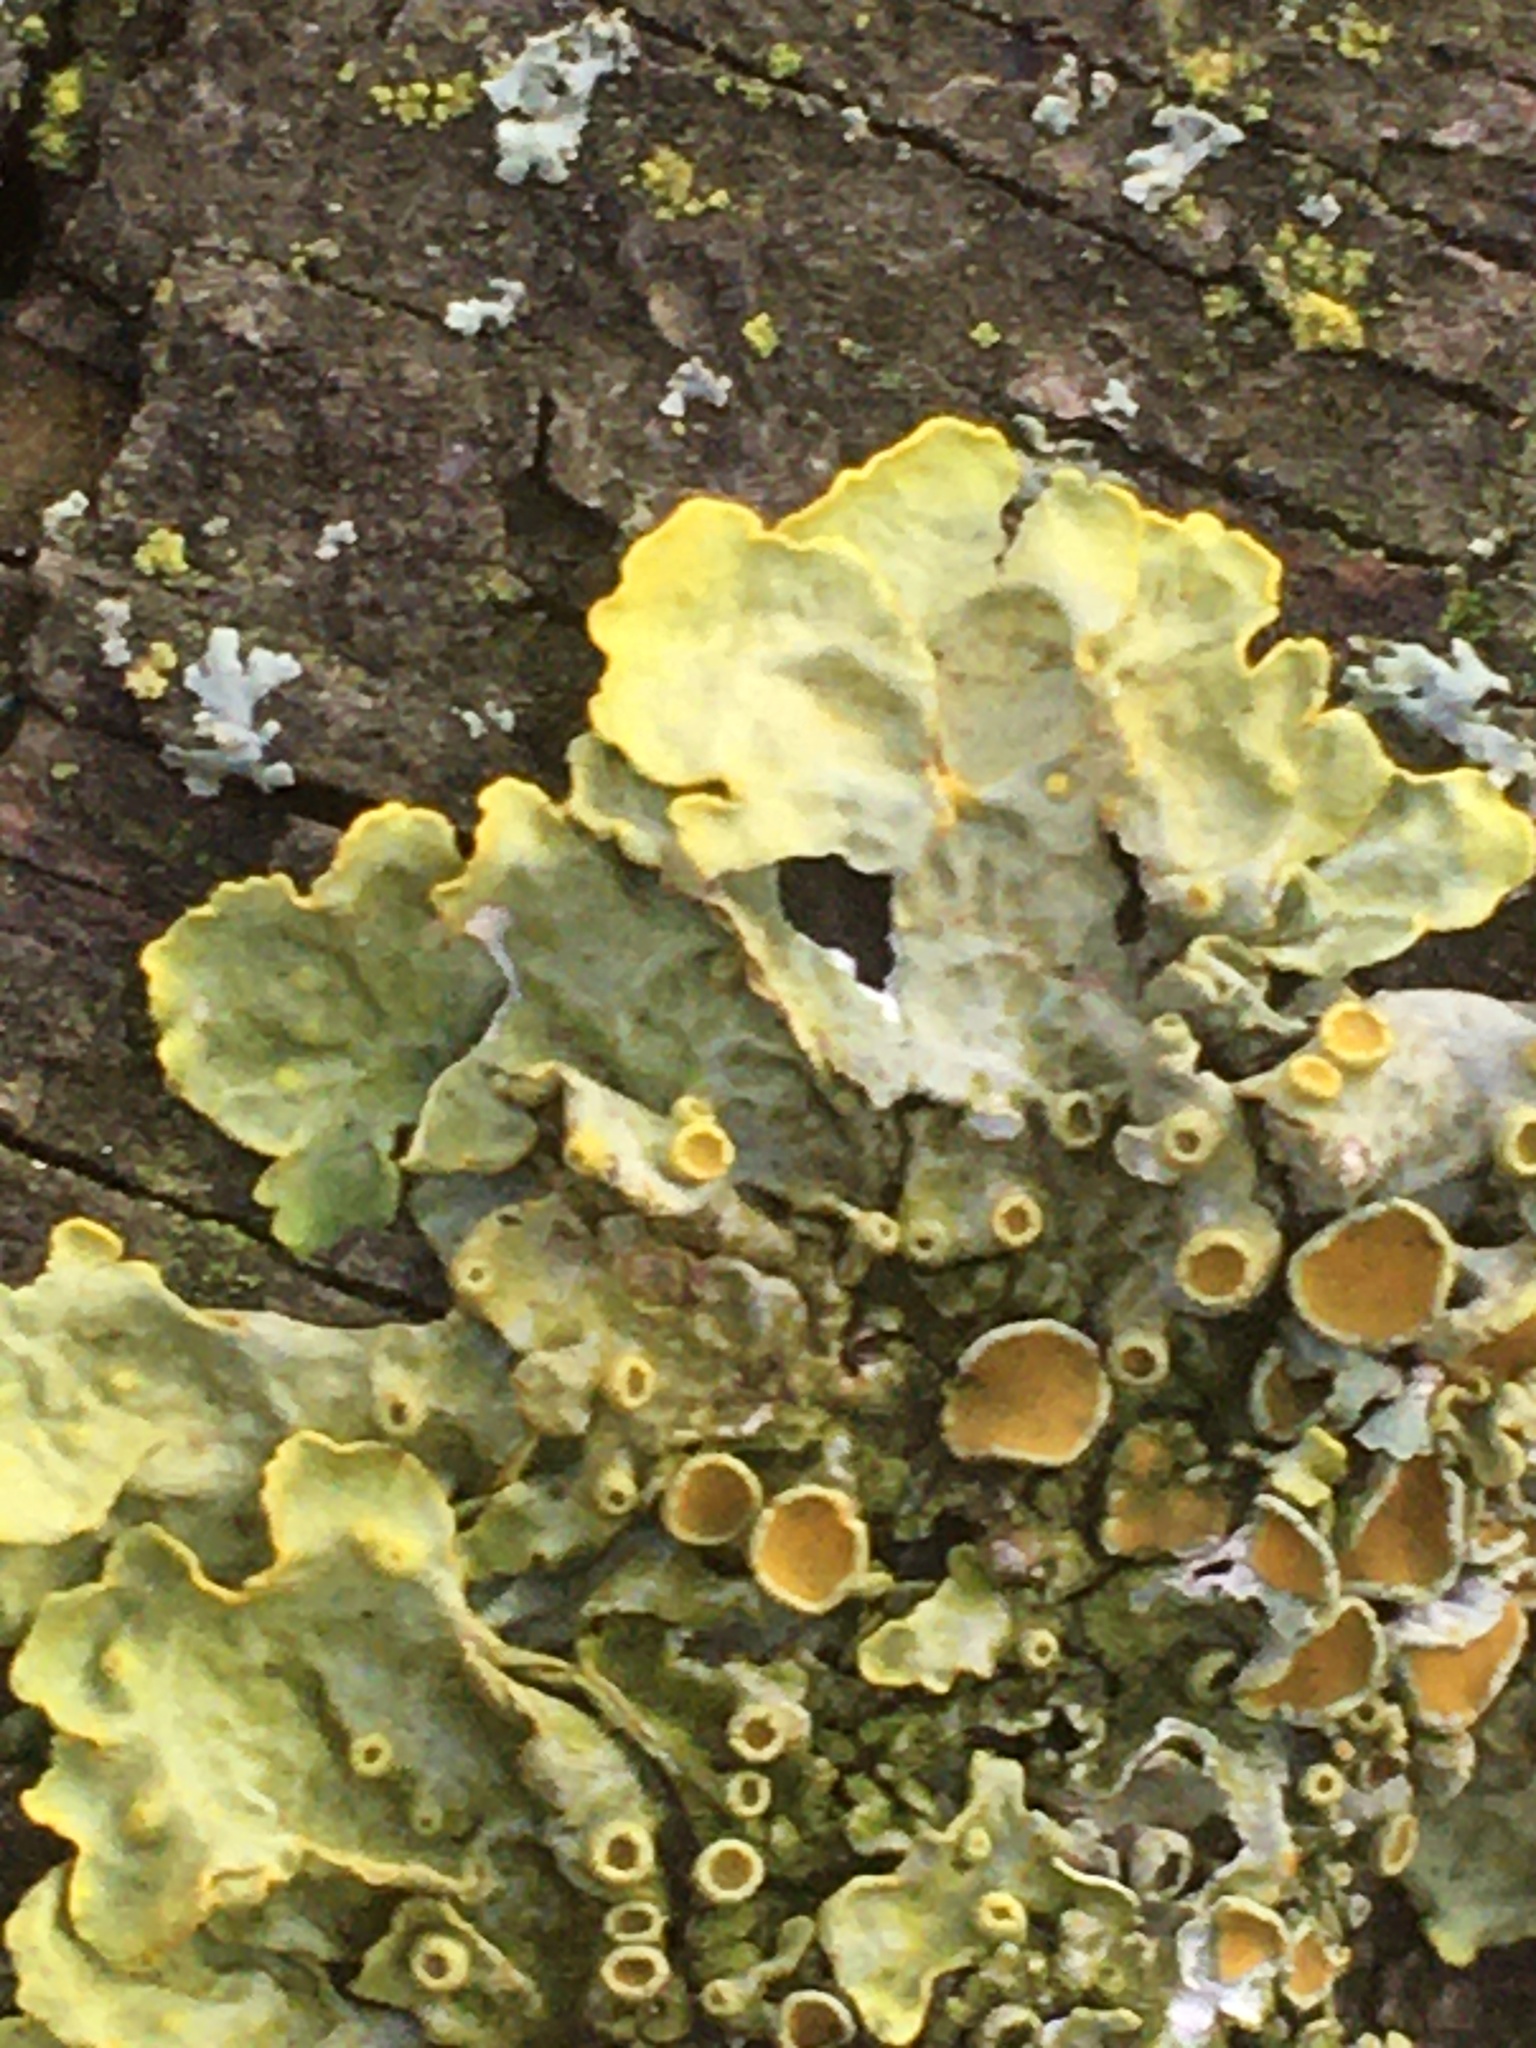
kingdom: Fungi
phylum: Ascomycota
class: Lecanoromycetes
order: Teloschistales
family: Teloschistaceae
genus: Xanthoria
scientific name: Xanthoria parietina
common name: Common orange lichen
